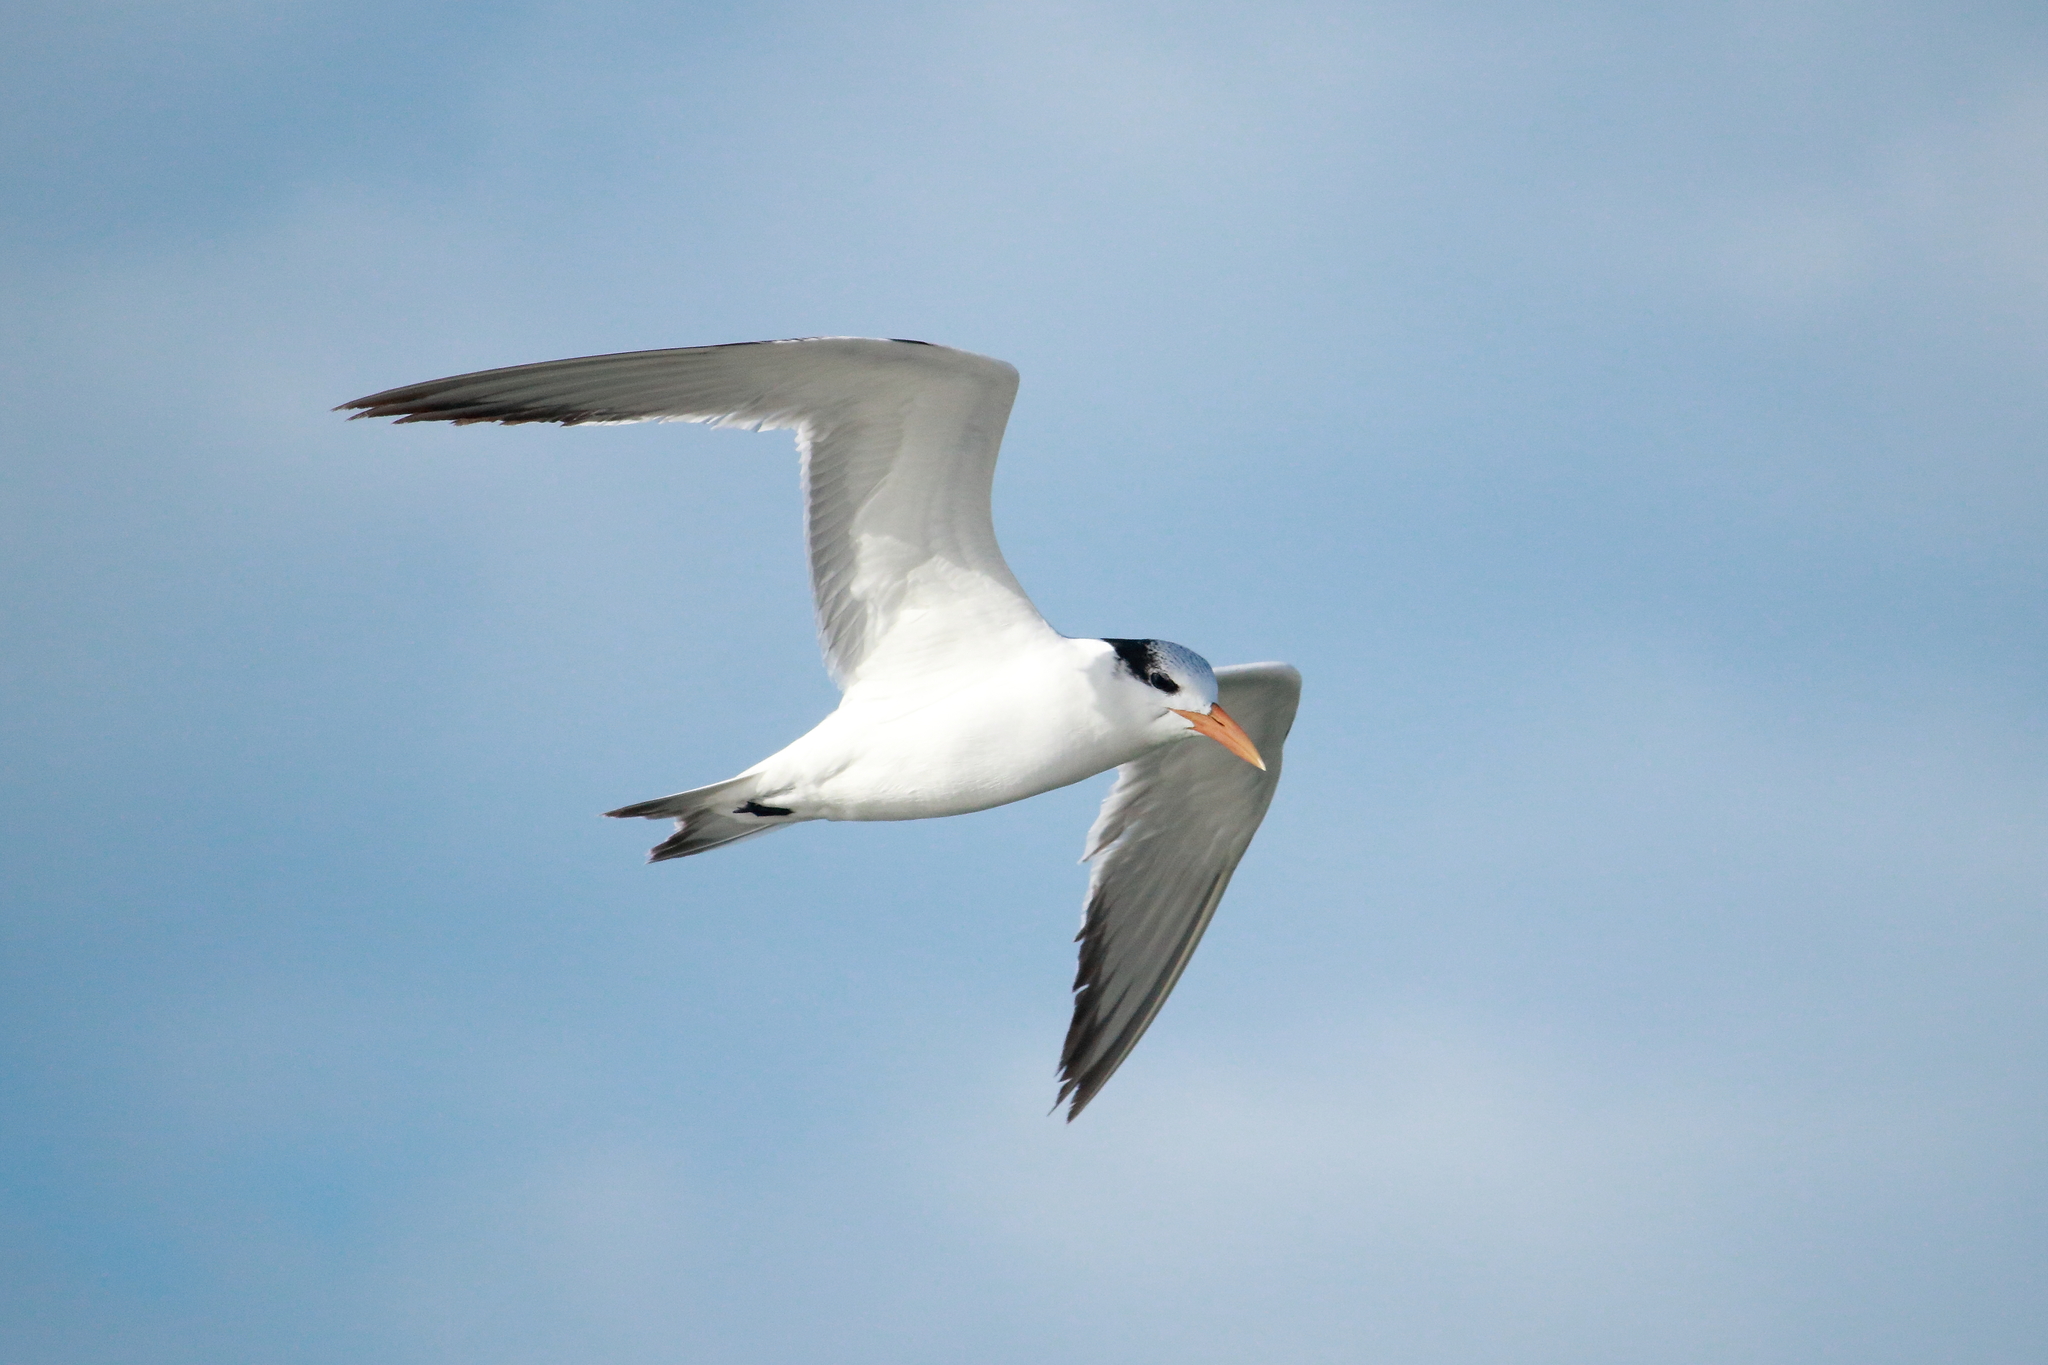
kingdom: Animalia
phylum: Chordata
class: Aves
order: Charadriiformes
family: Laridae
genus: Thalasseus
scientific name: Thalasseus maximus
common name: Royal tern
